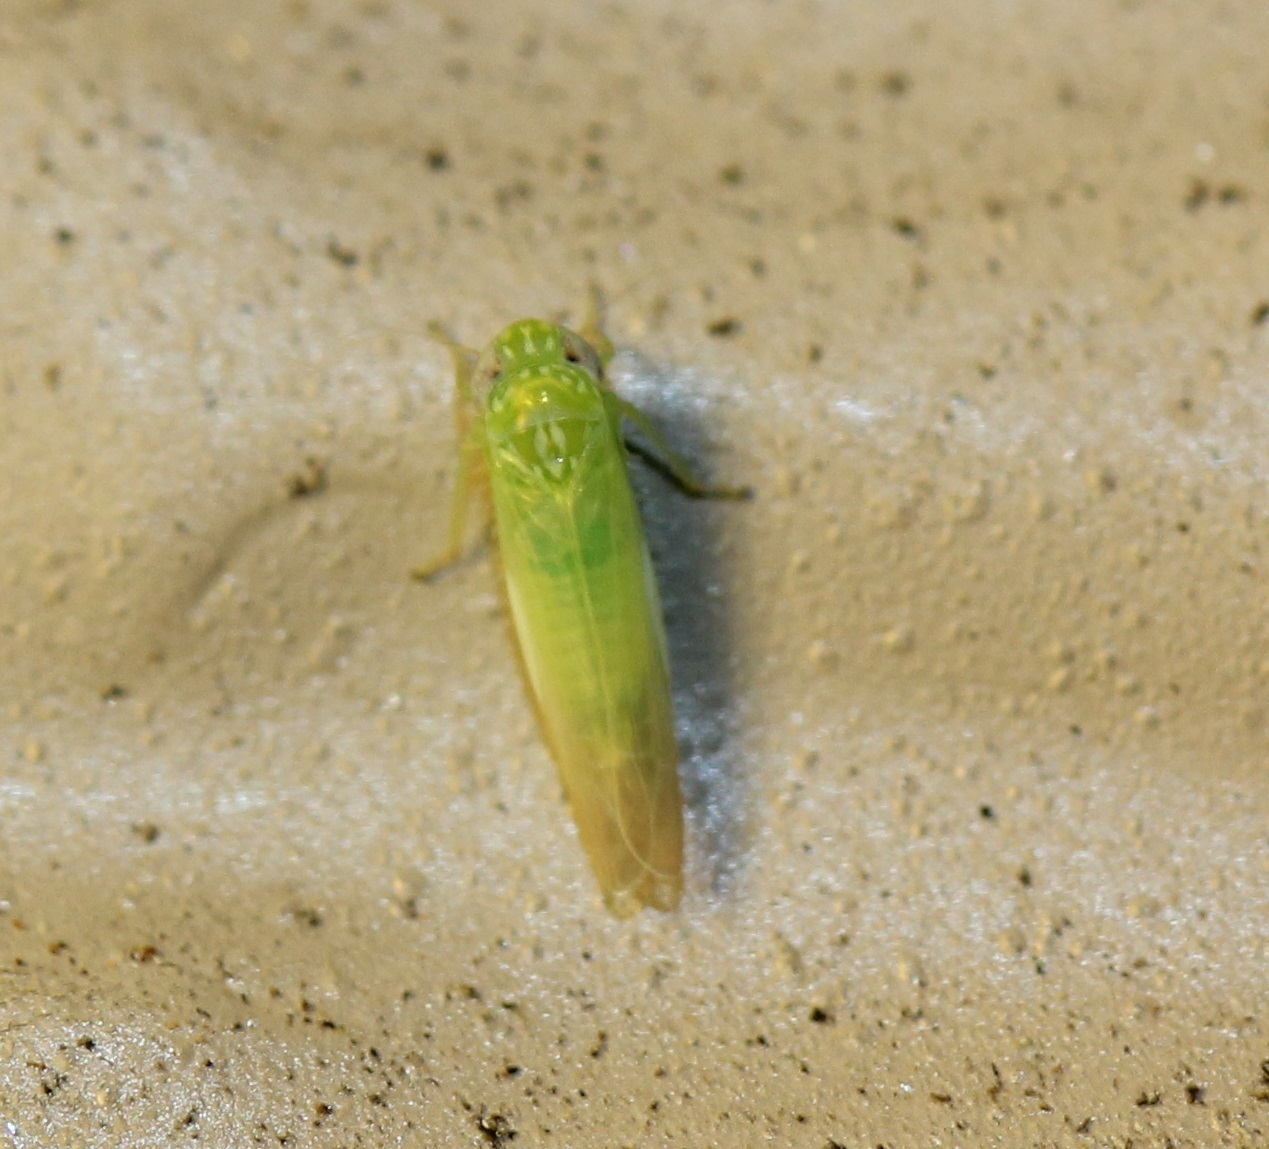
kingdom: Animalia
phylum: Arthropoda
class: Insecta
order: Hemiptera
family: Cicadellidae
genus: Empoasca
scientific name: Empoasca fabae
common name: Potato leafhopper
